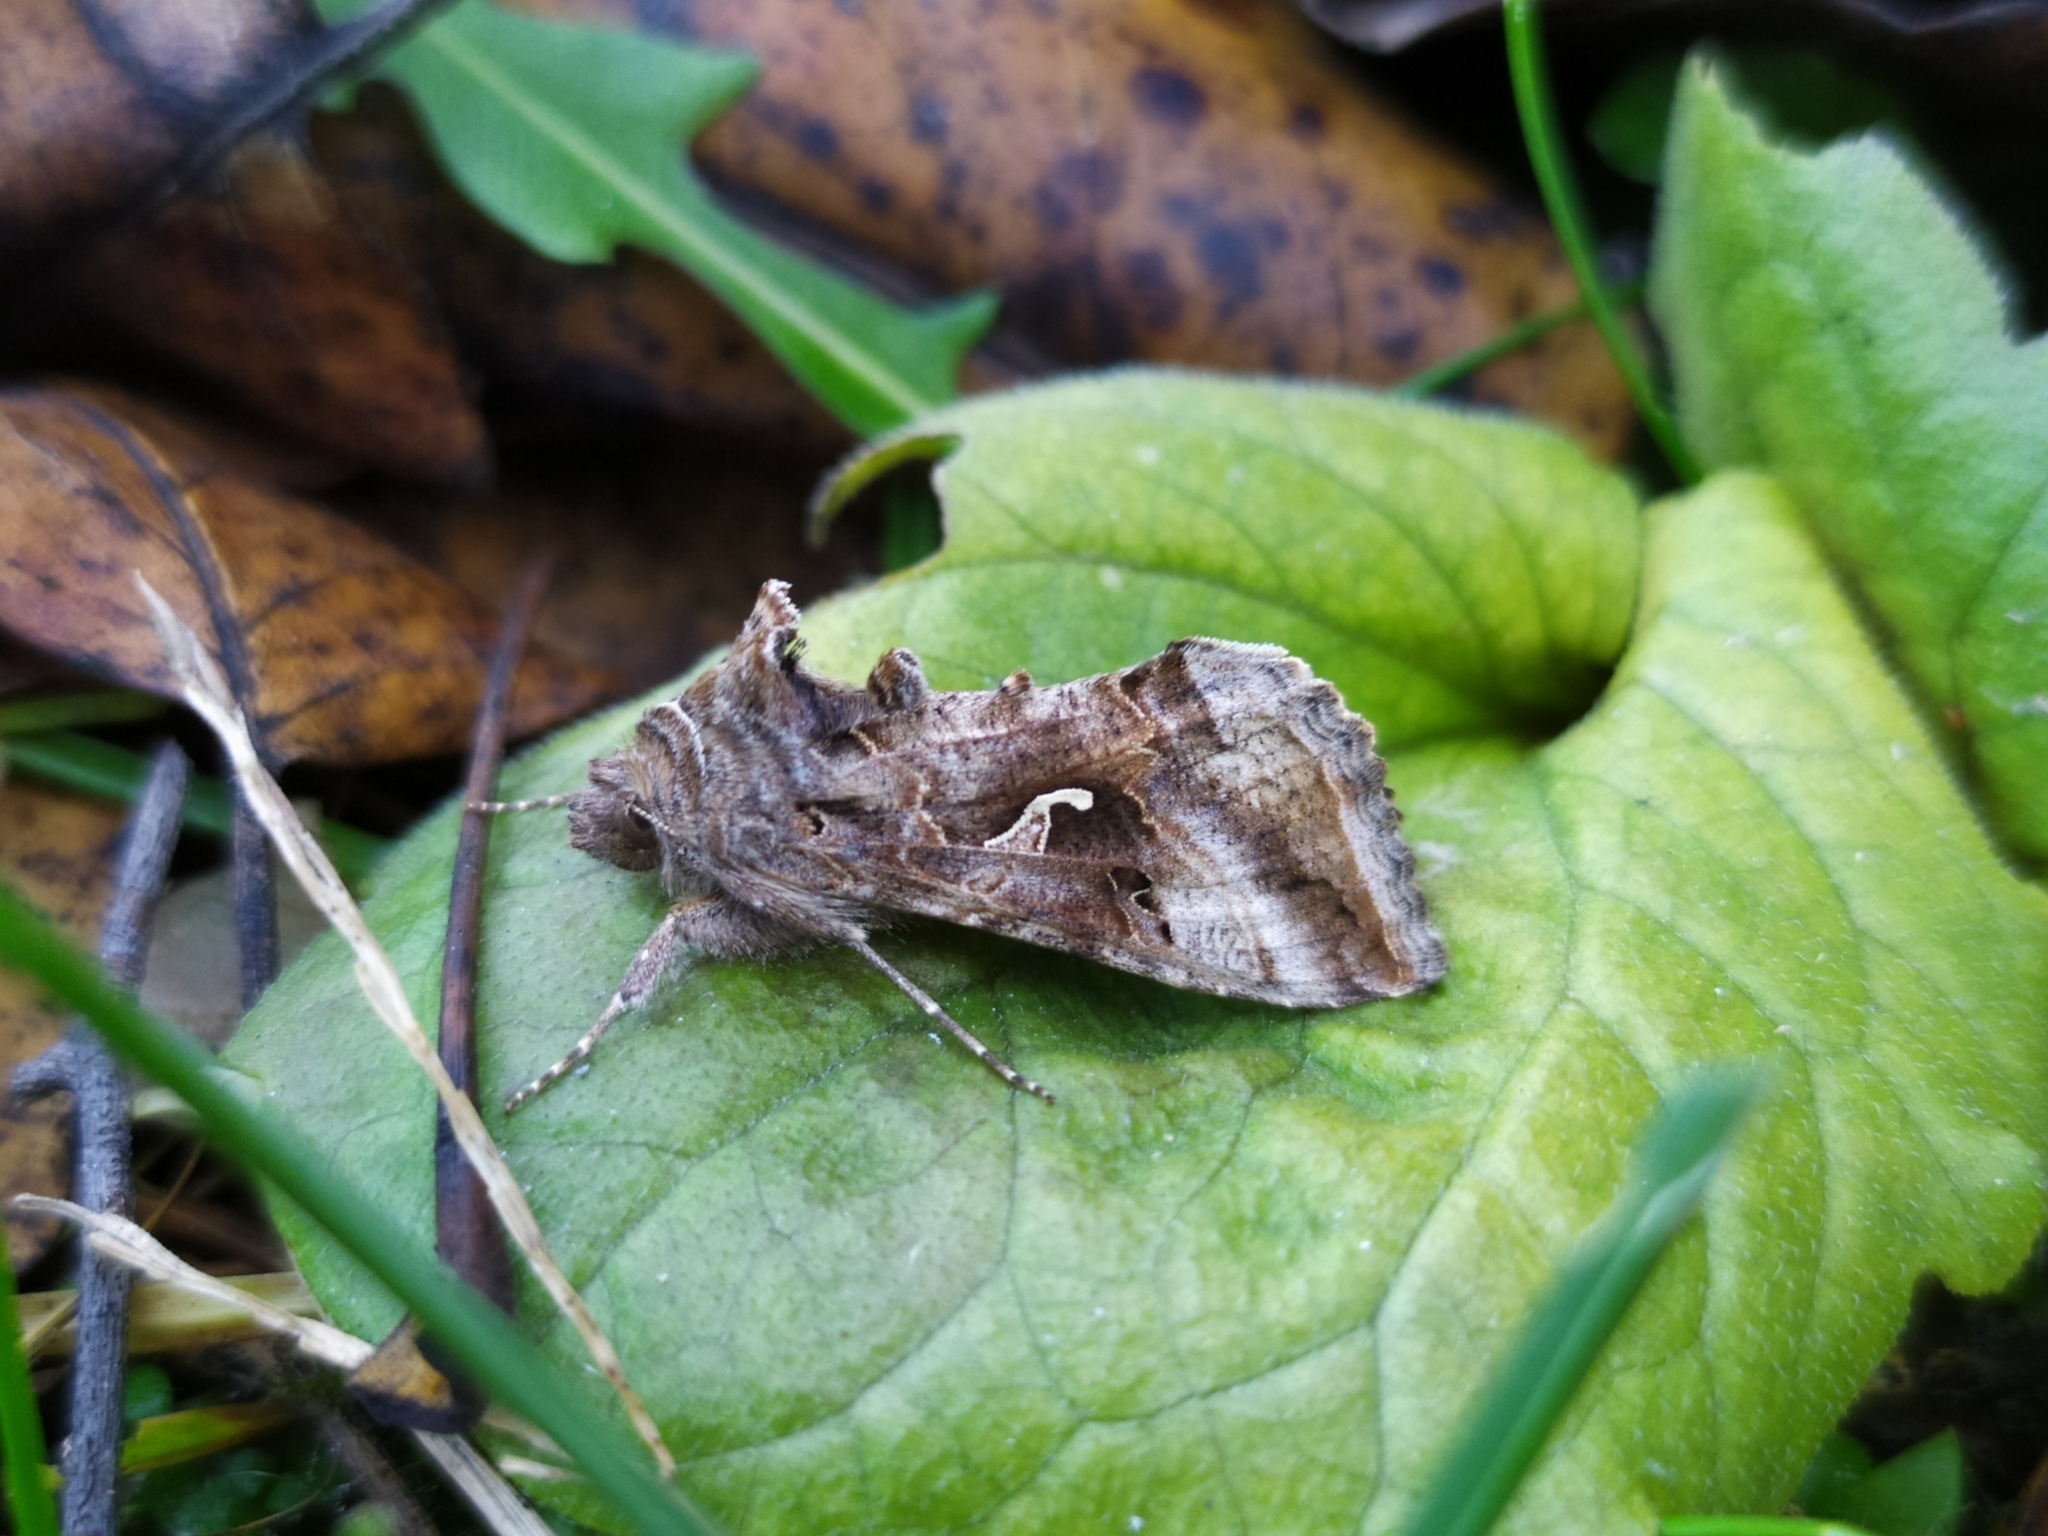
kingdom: Animalia
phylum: Arthropoda
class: Insecta
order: Lepidoptera
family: Noctuidae
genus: Autographa
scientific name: Autographa gamma
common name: Silver y
